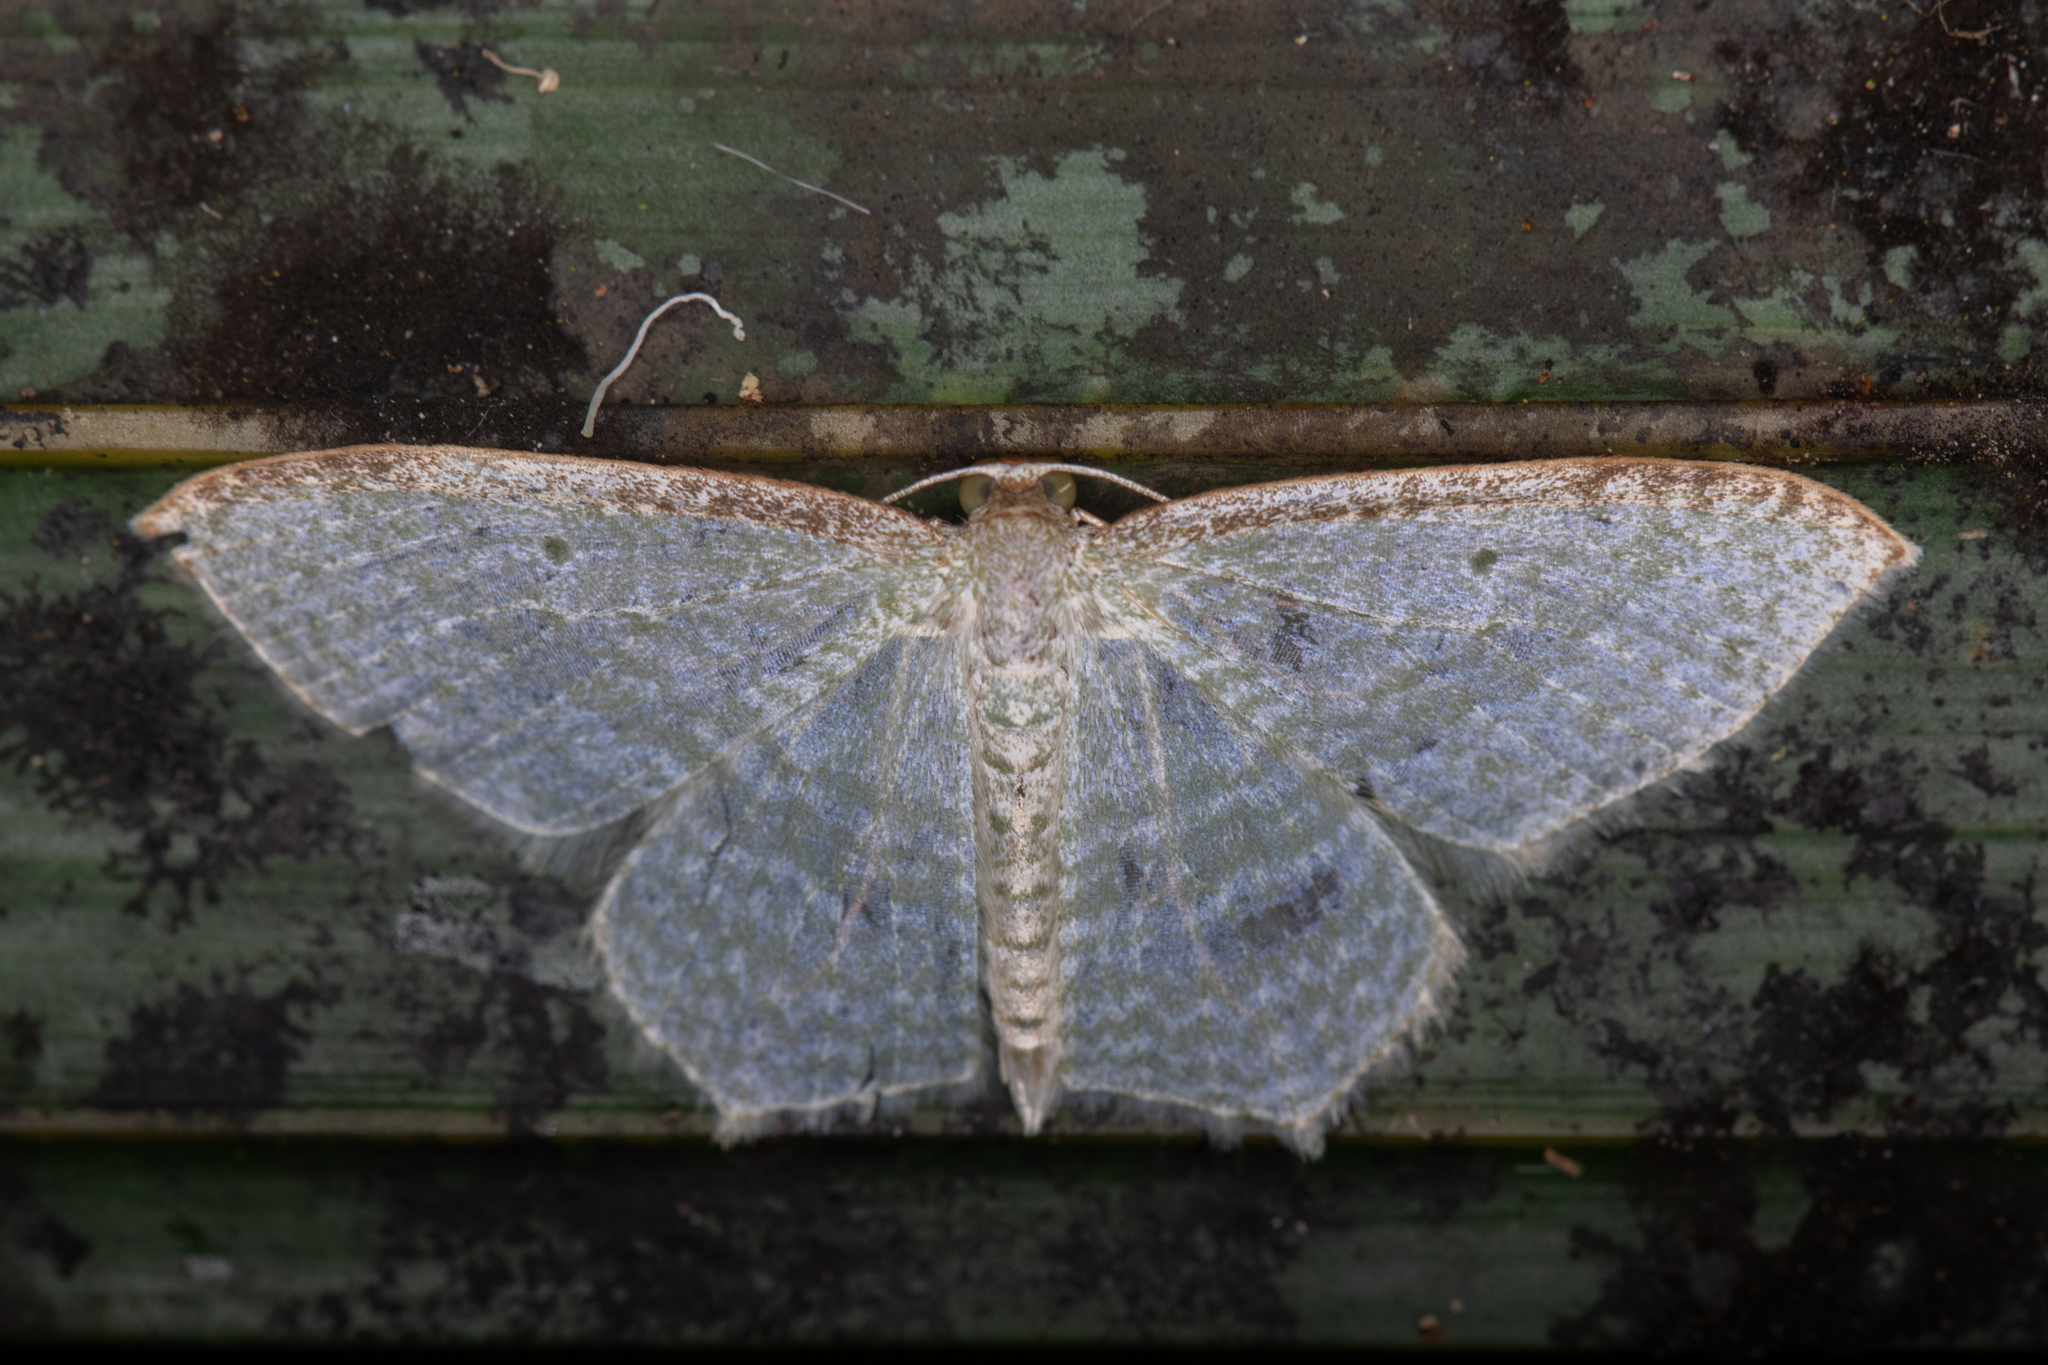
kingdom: Animalia
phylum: Arthropoda
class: Insecta
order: Lepidoptera
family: Geometridae
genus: Poecilasthena
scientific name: Poecilasthena pulchraria
